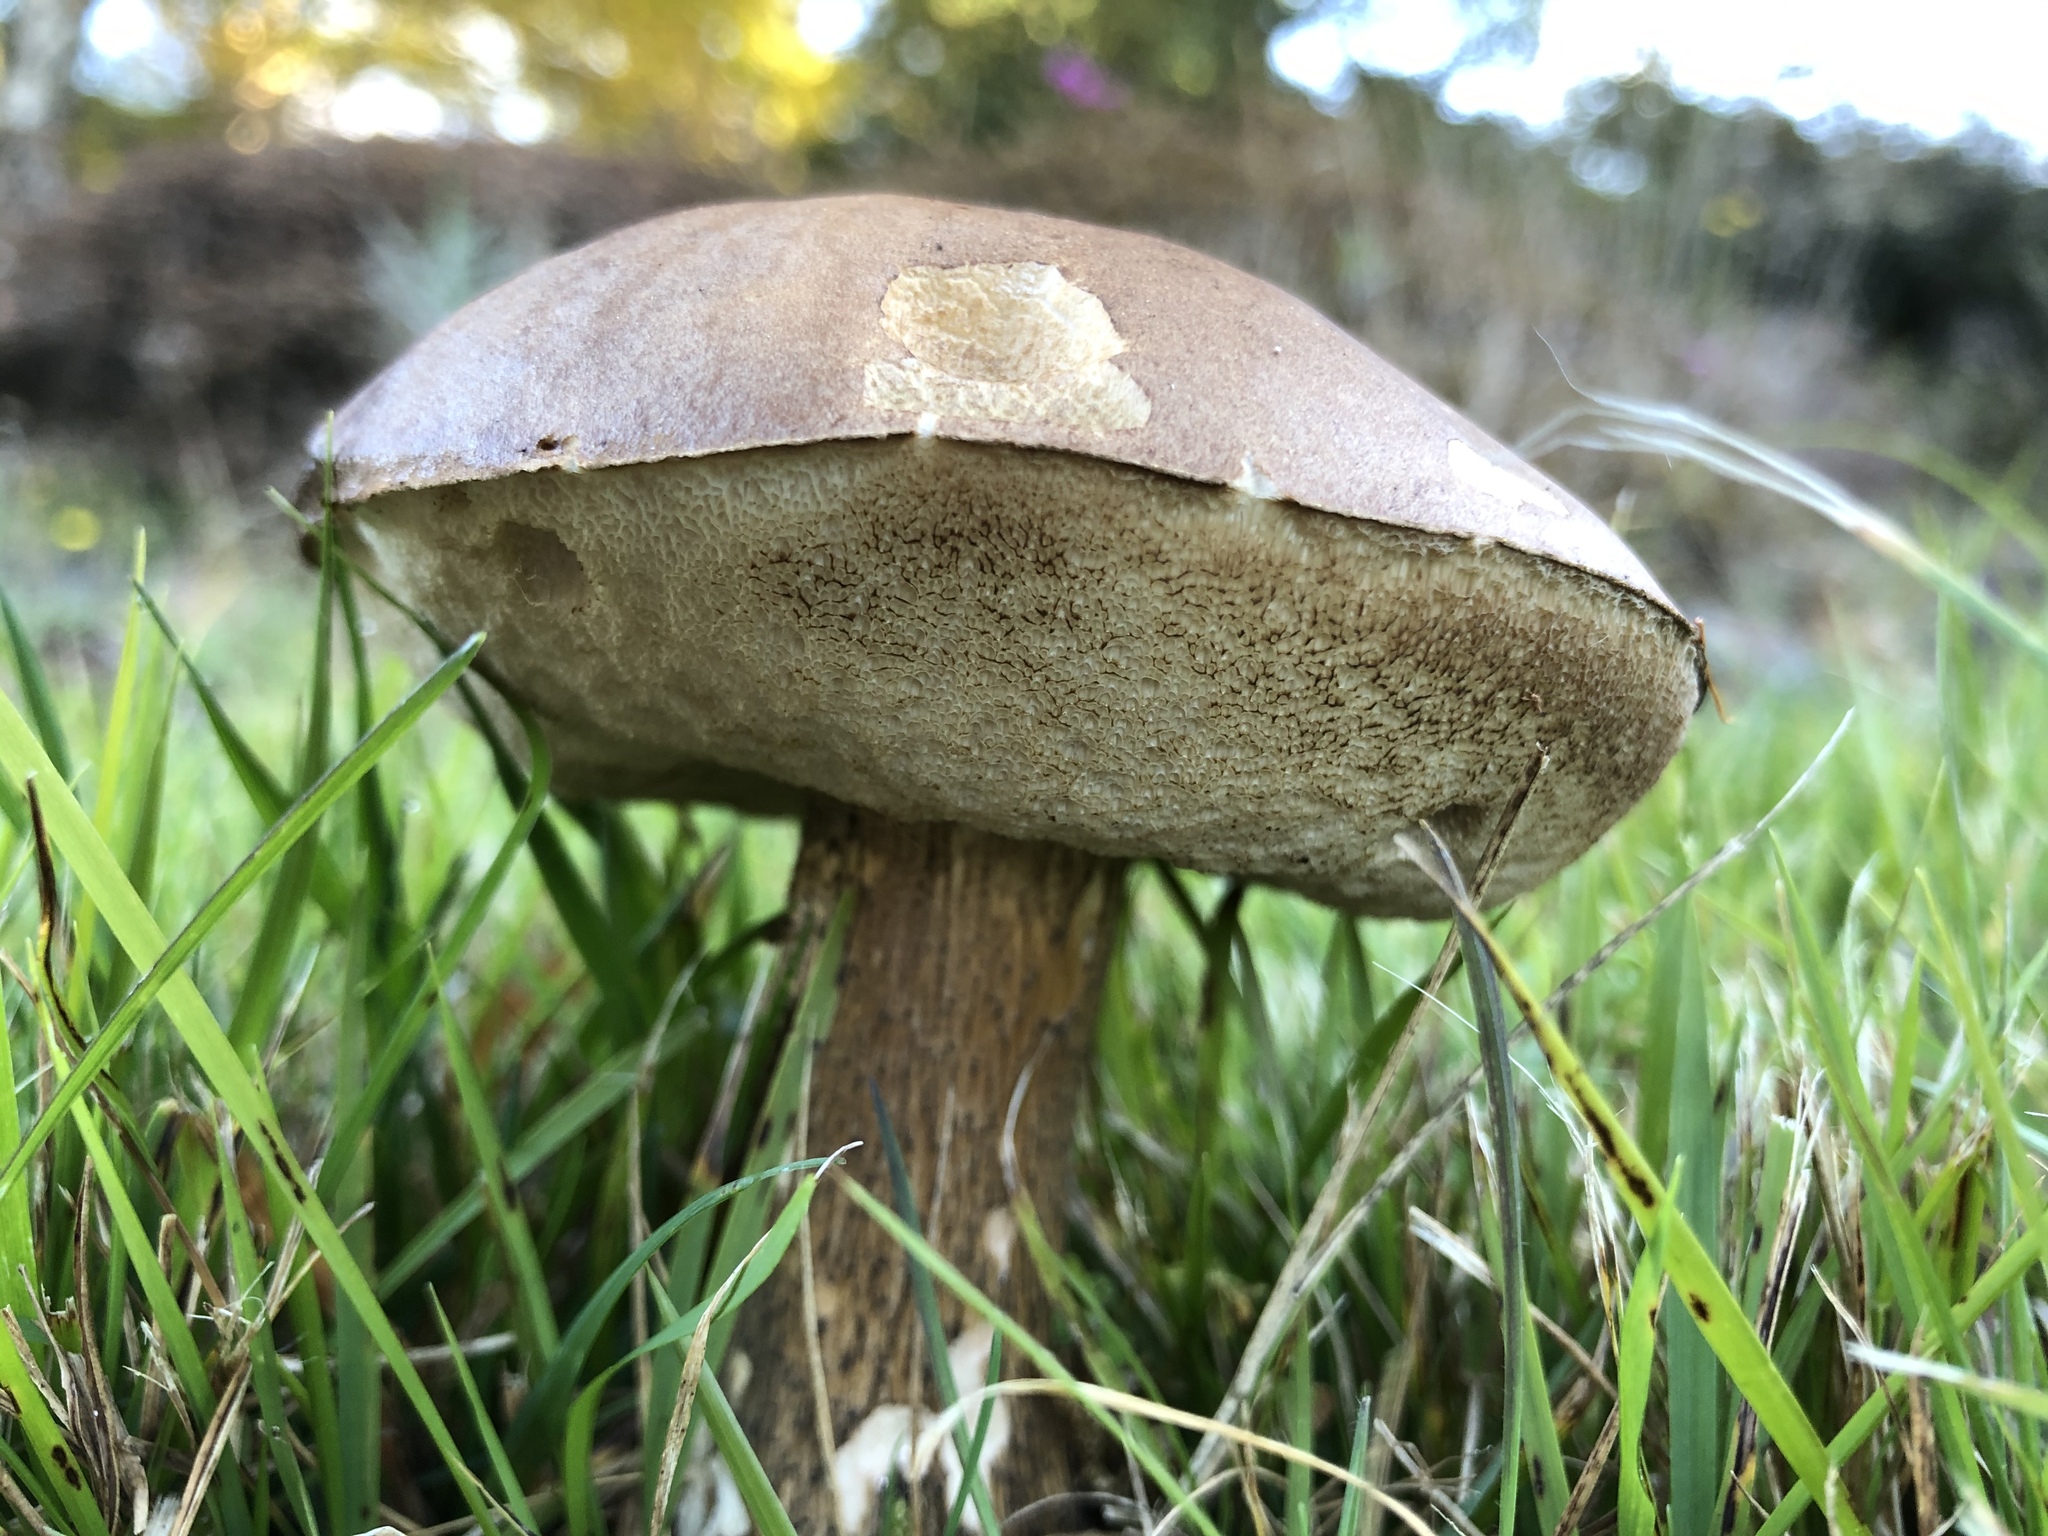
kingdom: Fungi
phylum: Basidiomycota
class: Agaricomycetes
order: Boletales
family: Boletaceae
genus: Leccinum
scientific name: Leccinum scabrum
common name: Blushing bolete
